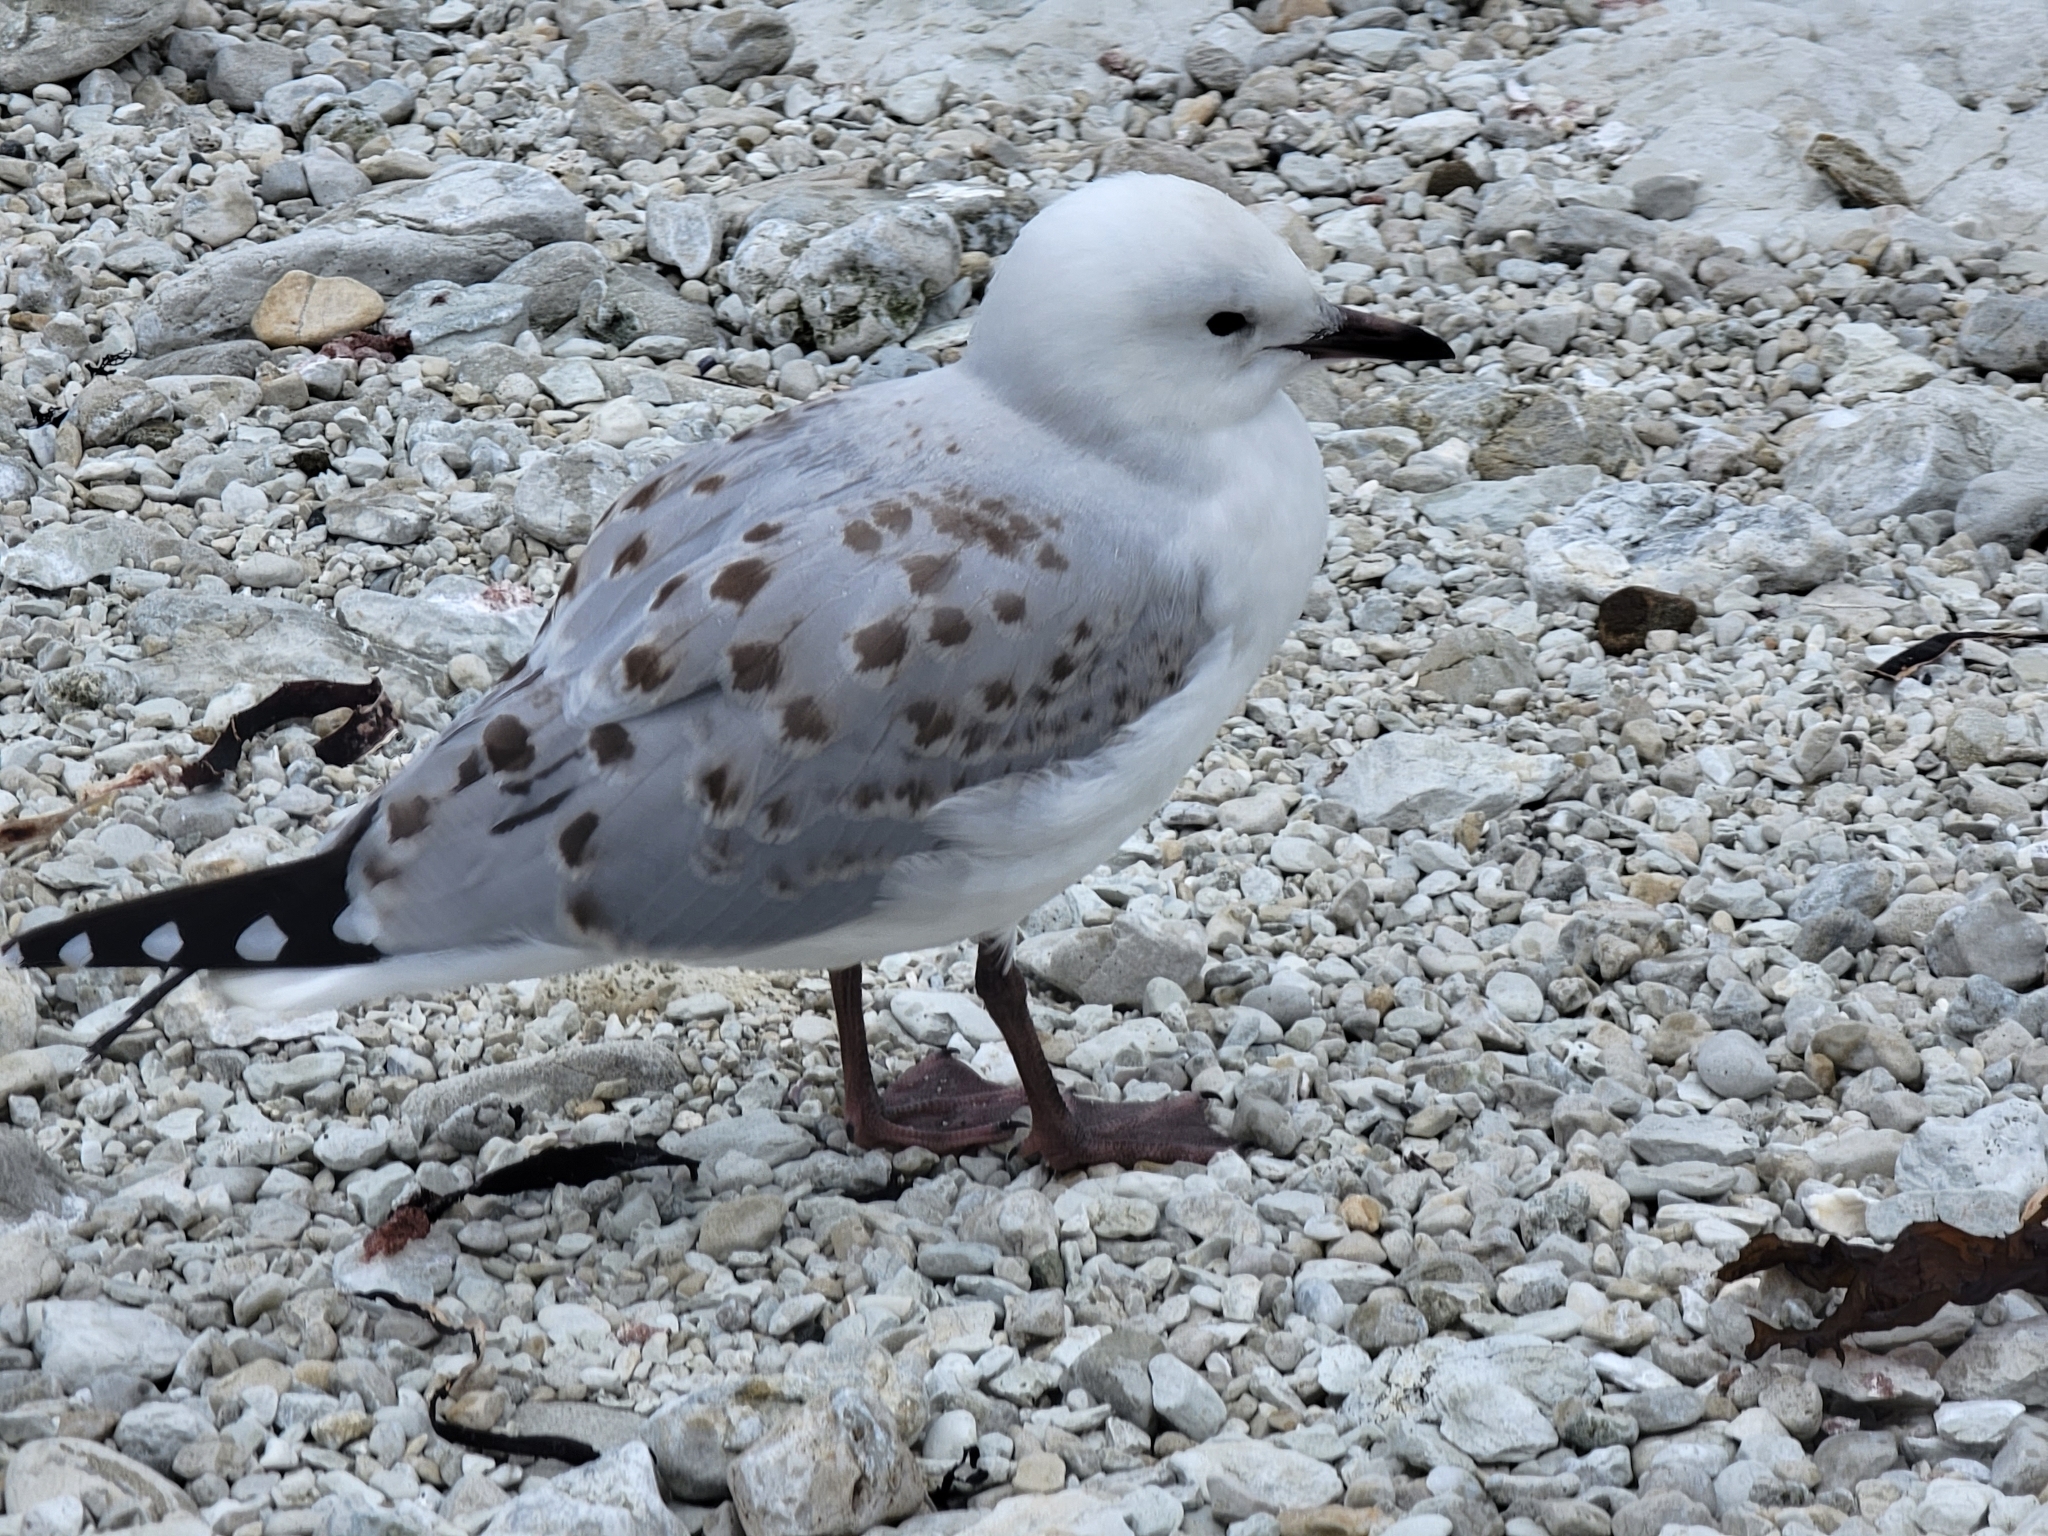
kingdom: Animalia
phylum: Chordata
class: Aves
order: Charadriiformes
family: Laridae
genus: Chroicocephalus
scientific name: Chroicocephalus novaehollandiae
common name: Silver gull
